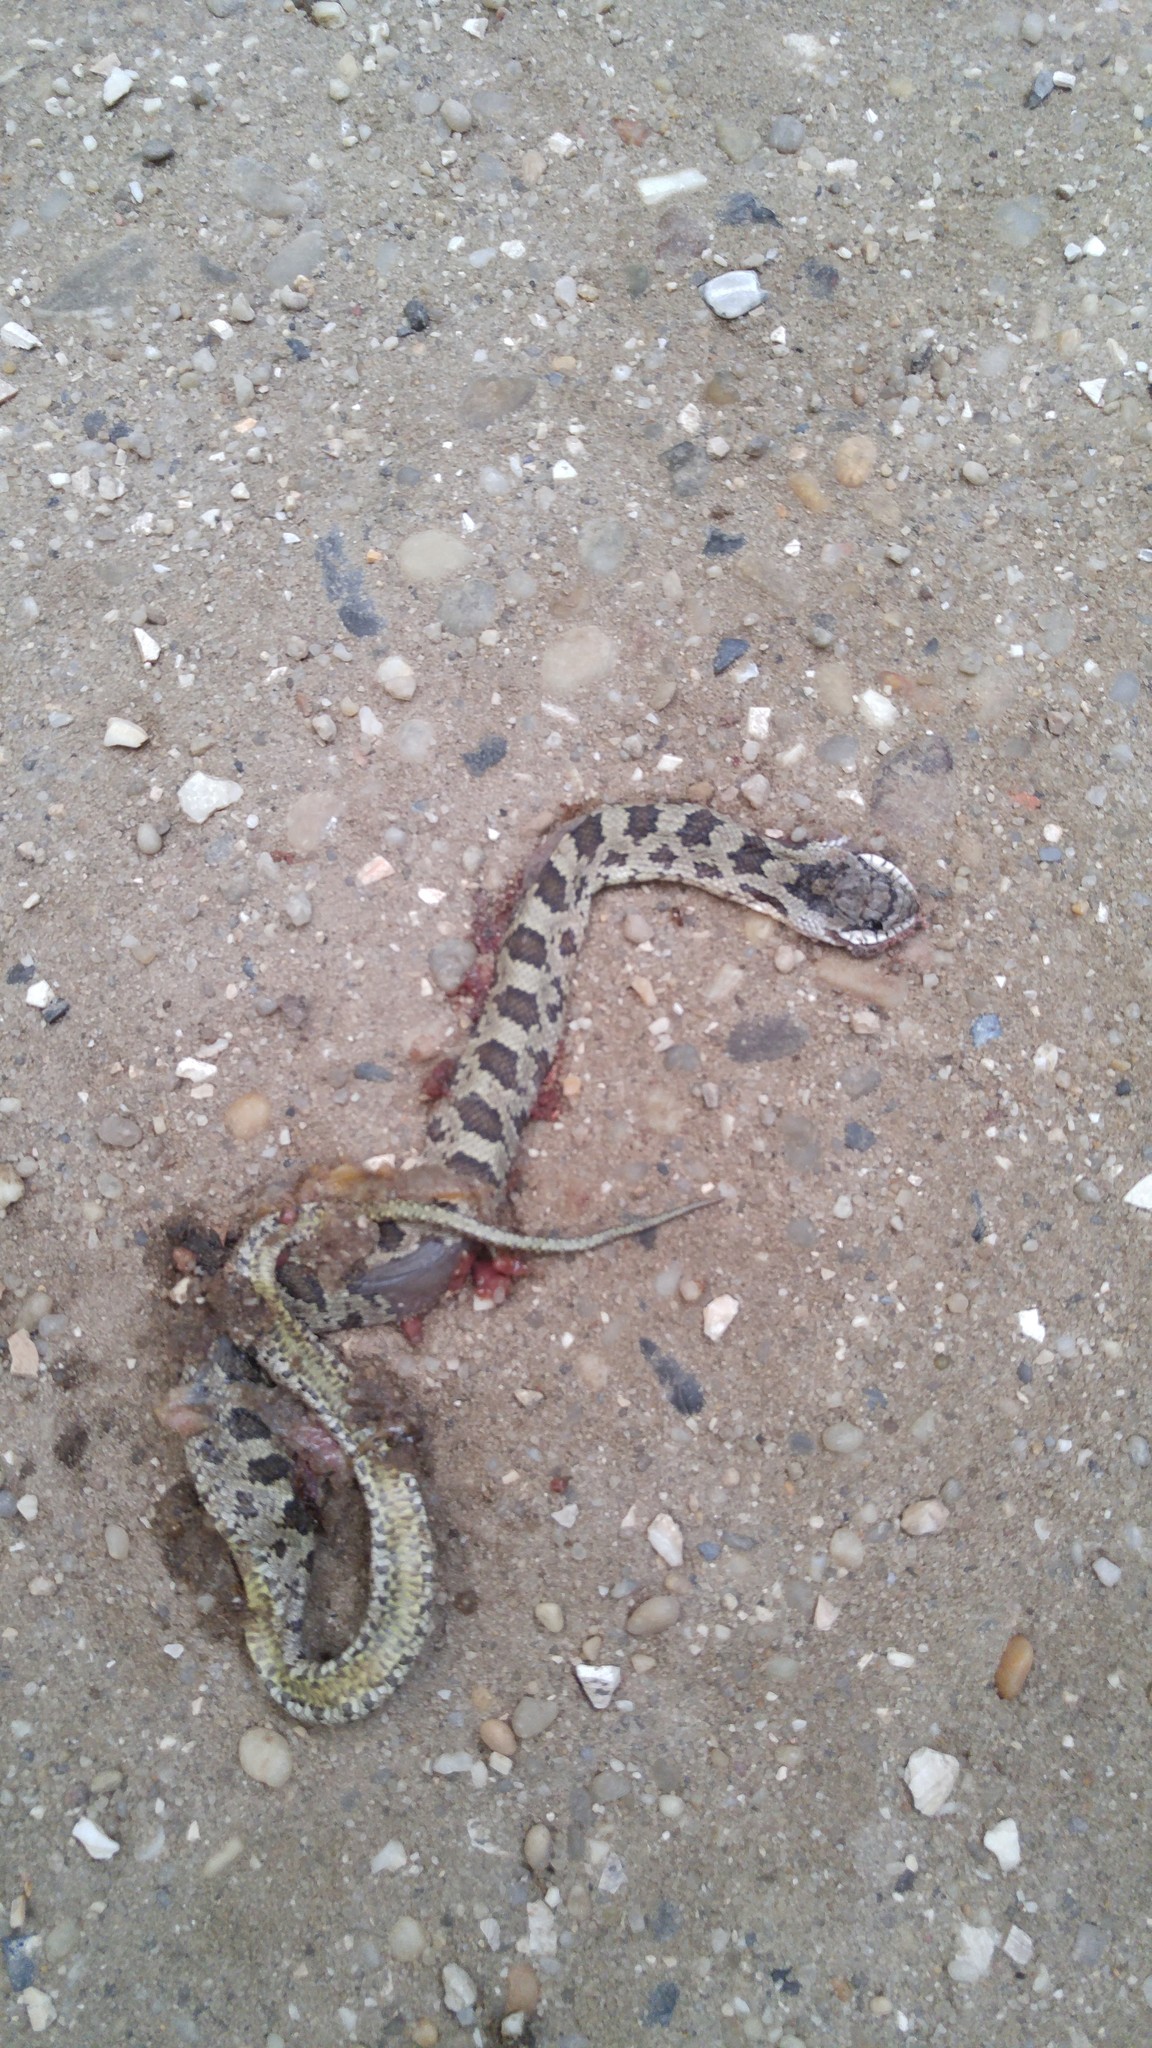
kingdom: Animalia
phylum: Chordata
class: Squamata
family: Colubridae
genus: Pantherophis
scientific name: Pantherophis alleghaniensis
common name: Eastern rat snake
